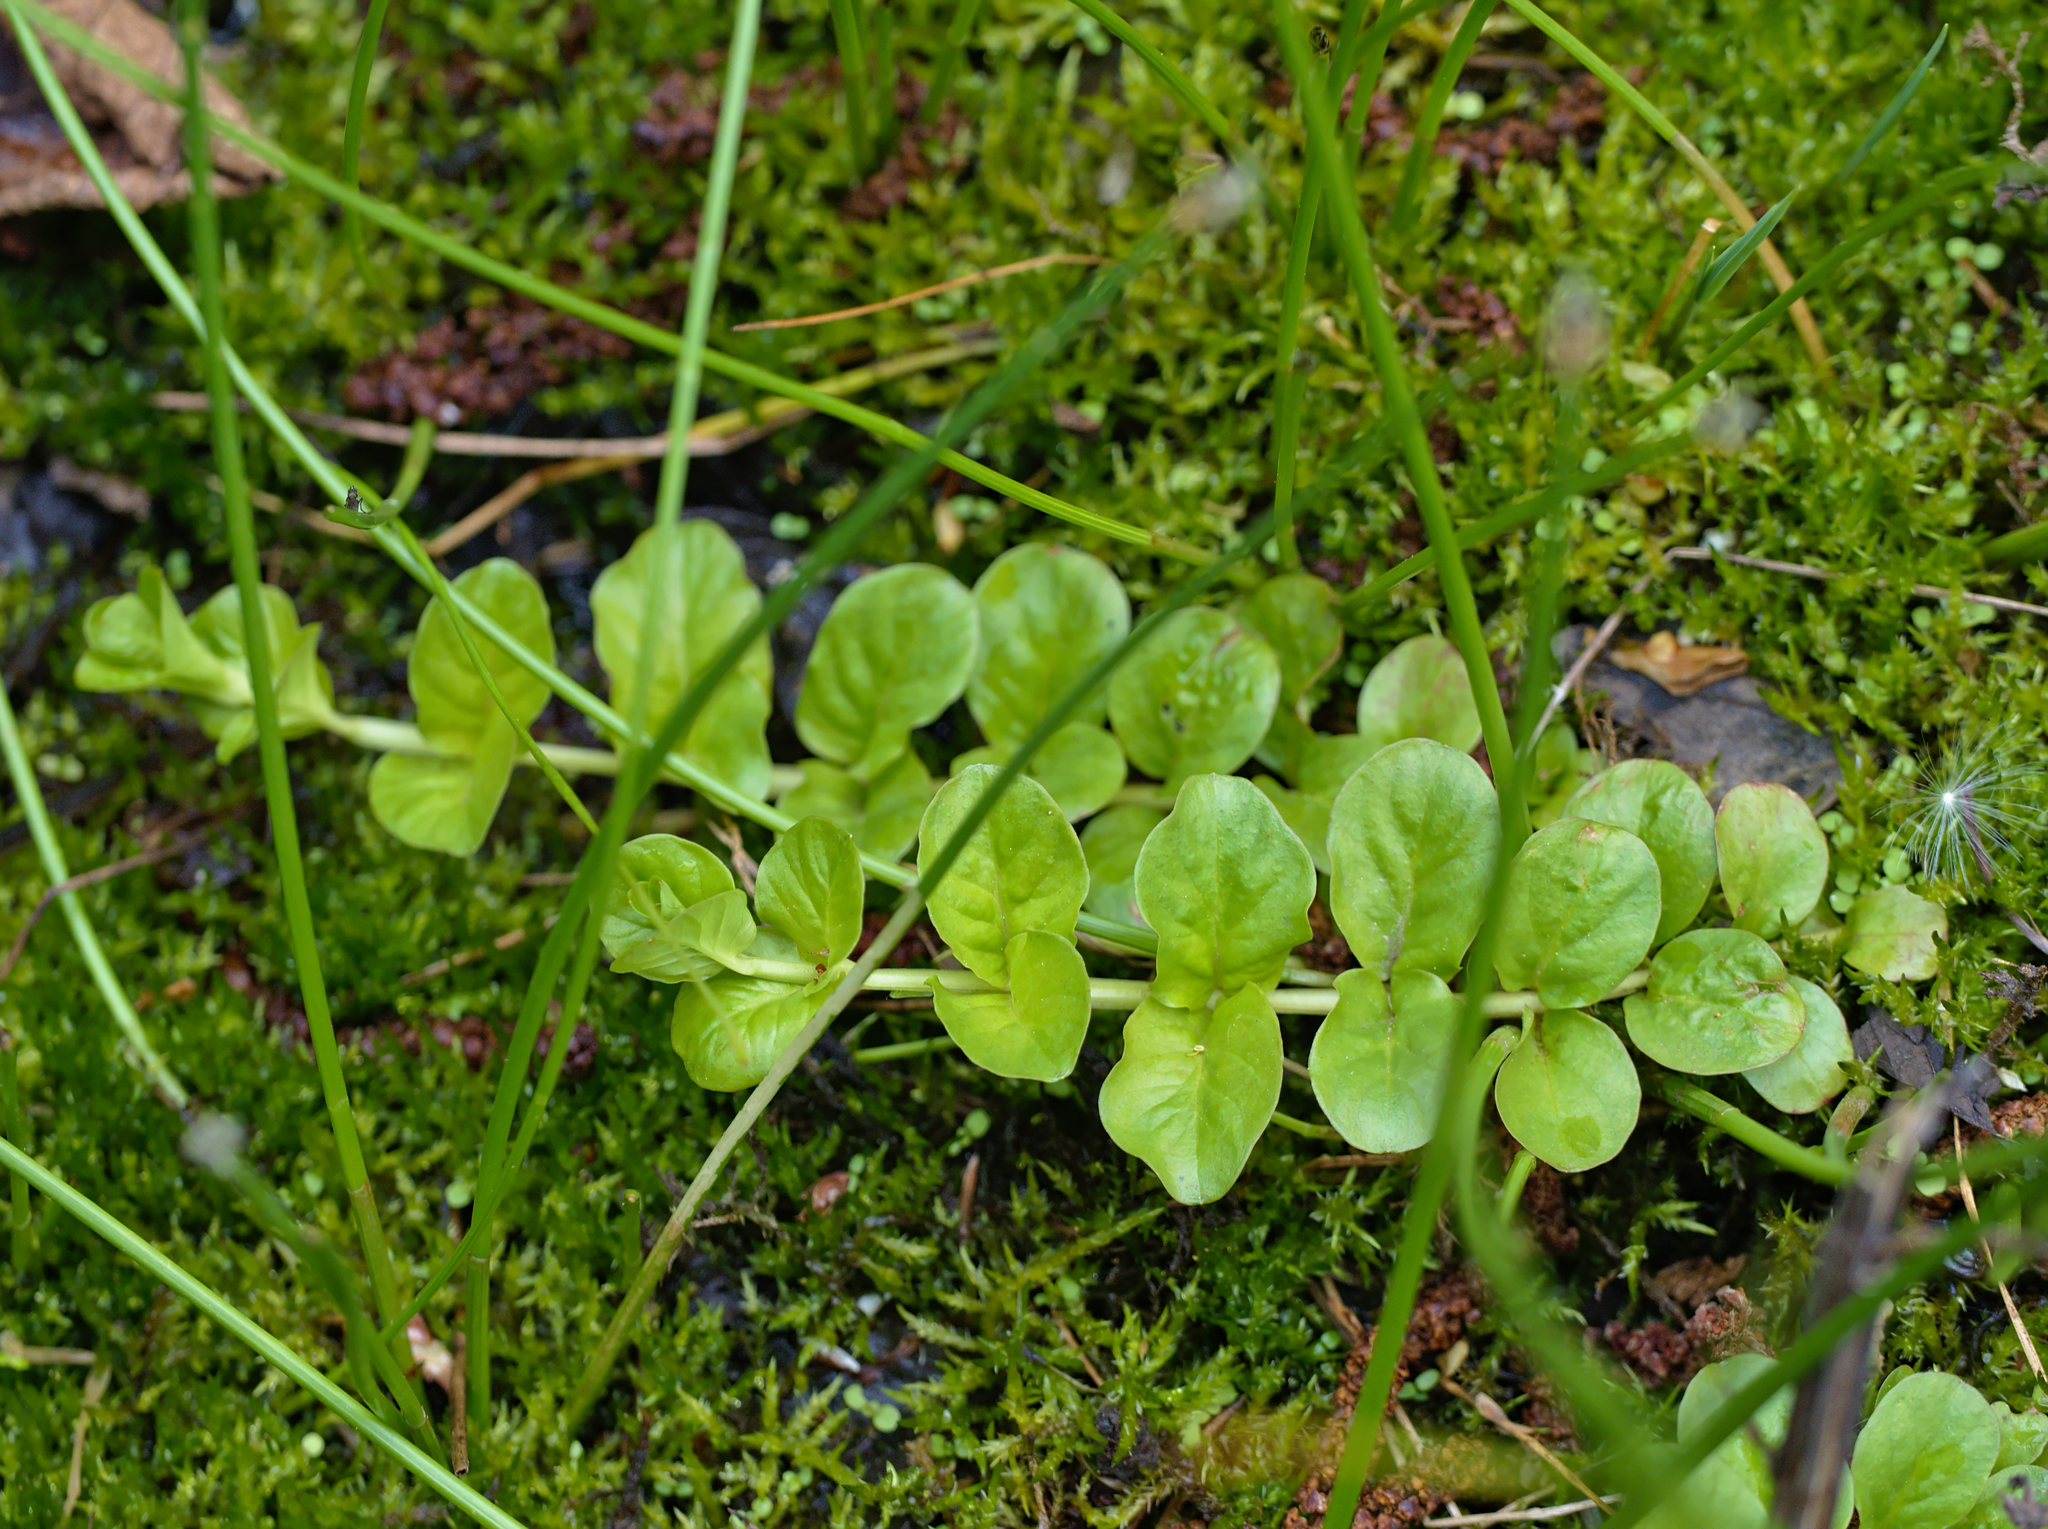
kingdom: Plantae
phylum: Tracheophyta
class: Magnoliopsida
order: Ericales
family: Primulaceae
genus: Lysimachia
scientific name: Lysimachia nummularia
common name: Moneywort
